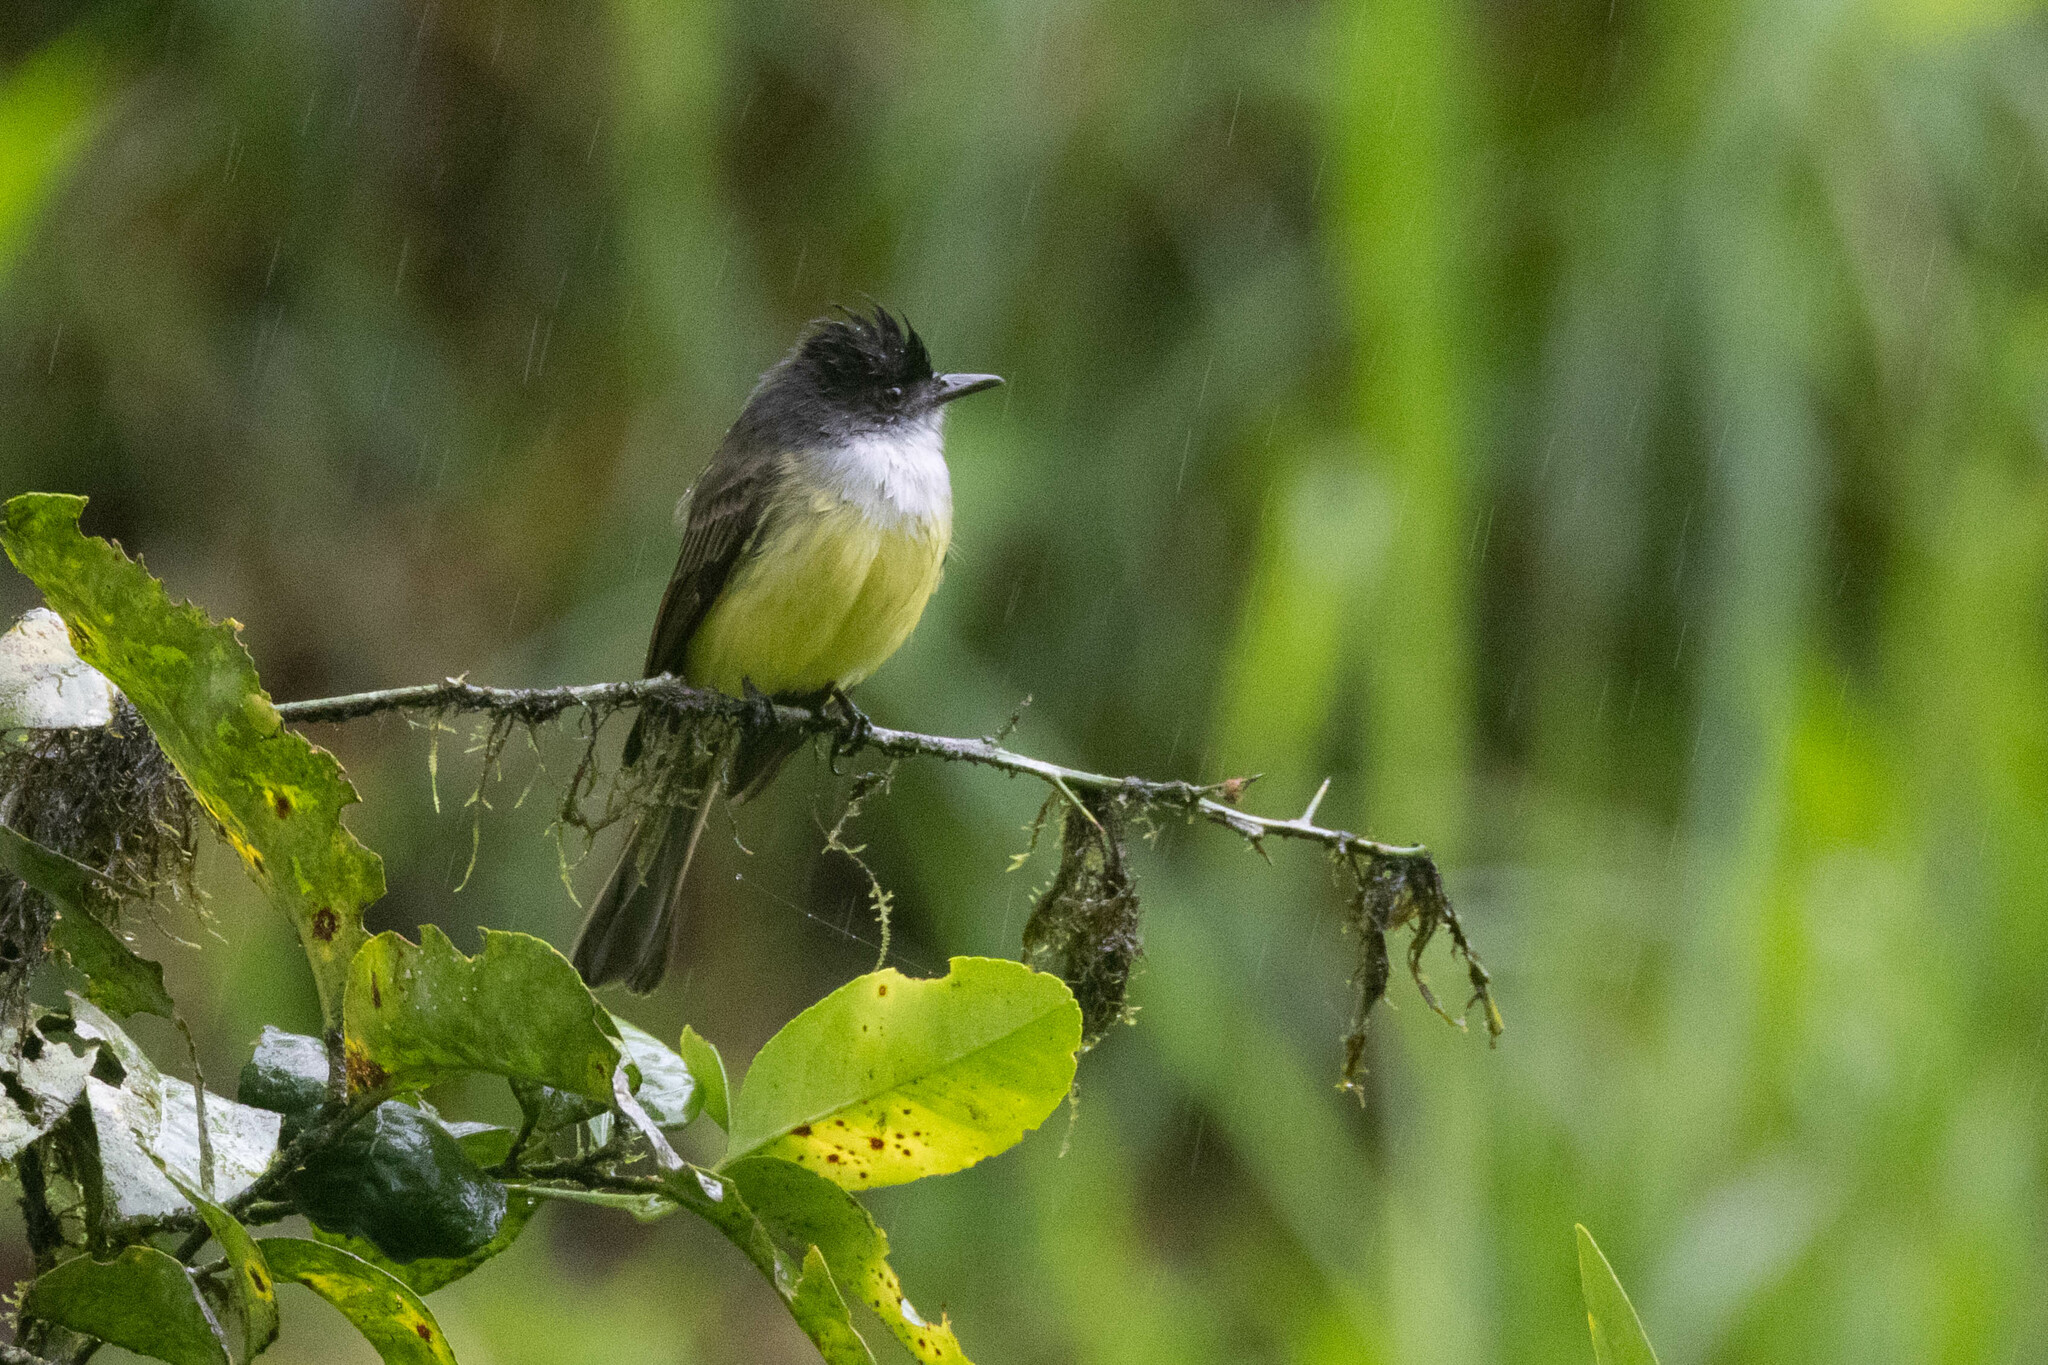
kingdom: Animalia
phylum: Chordata
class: Aves
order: Passeriformes
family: Tyrannidae
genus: Myiarchus
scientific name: Myiarchus tuberculifer
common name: Dusky-capped flycatcher
